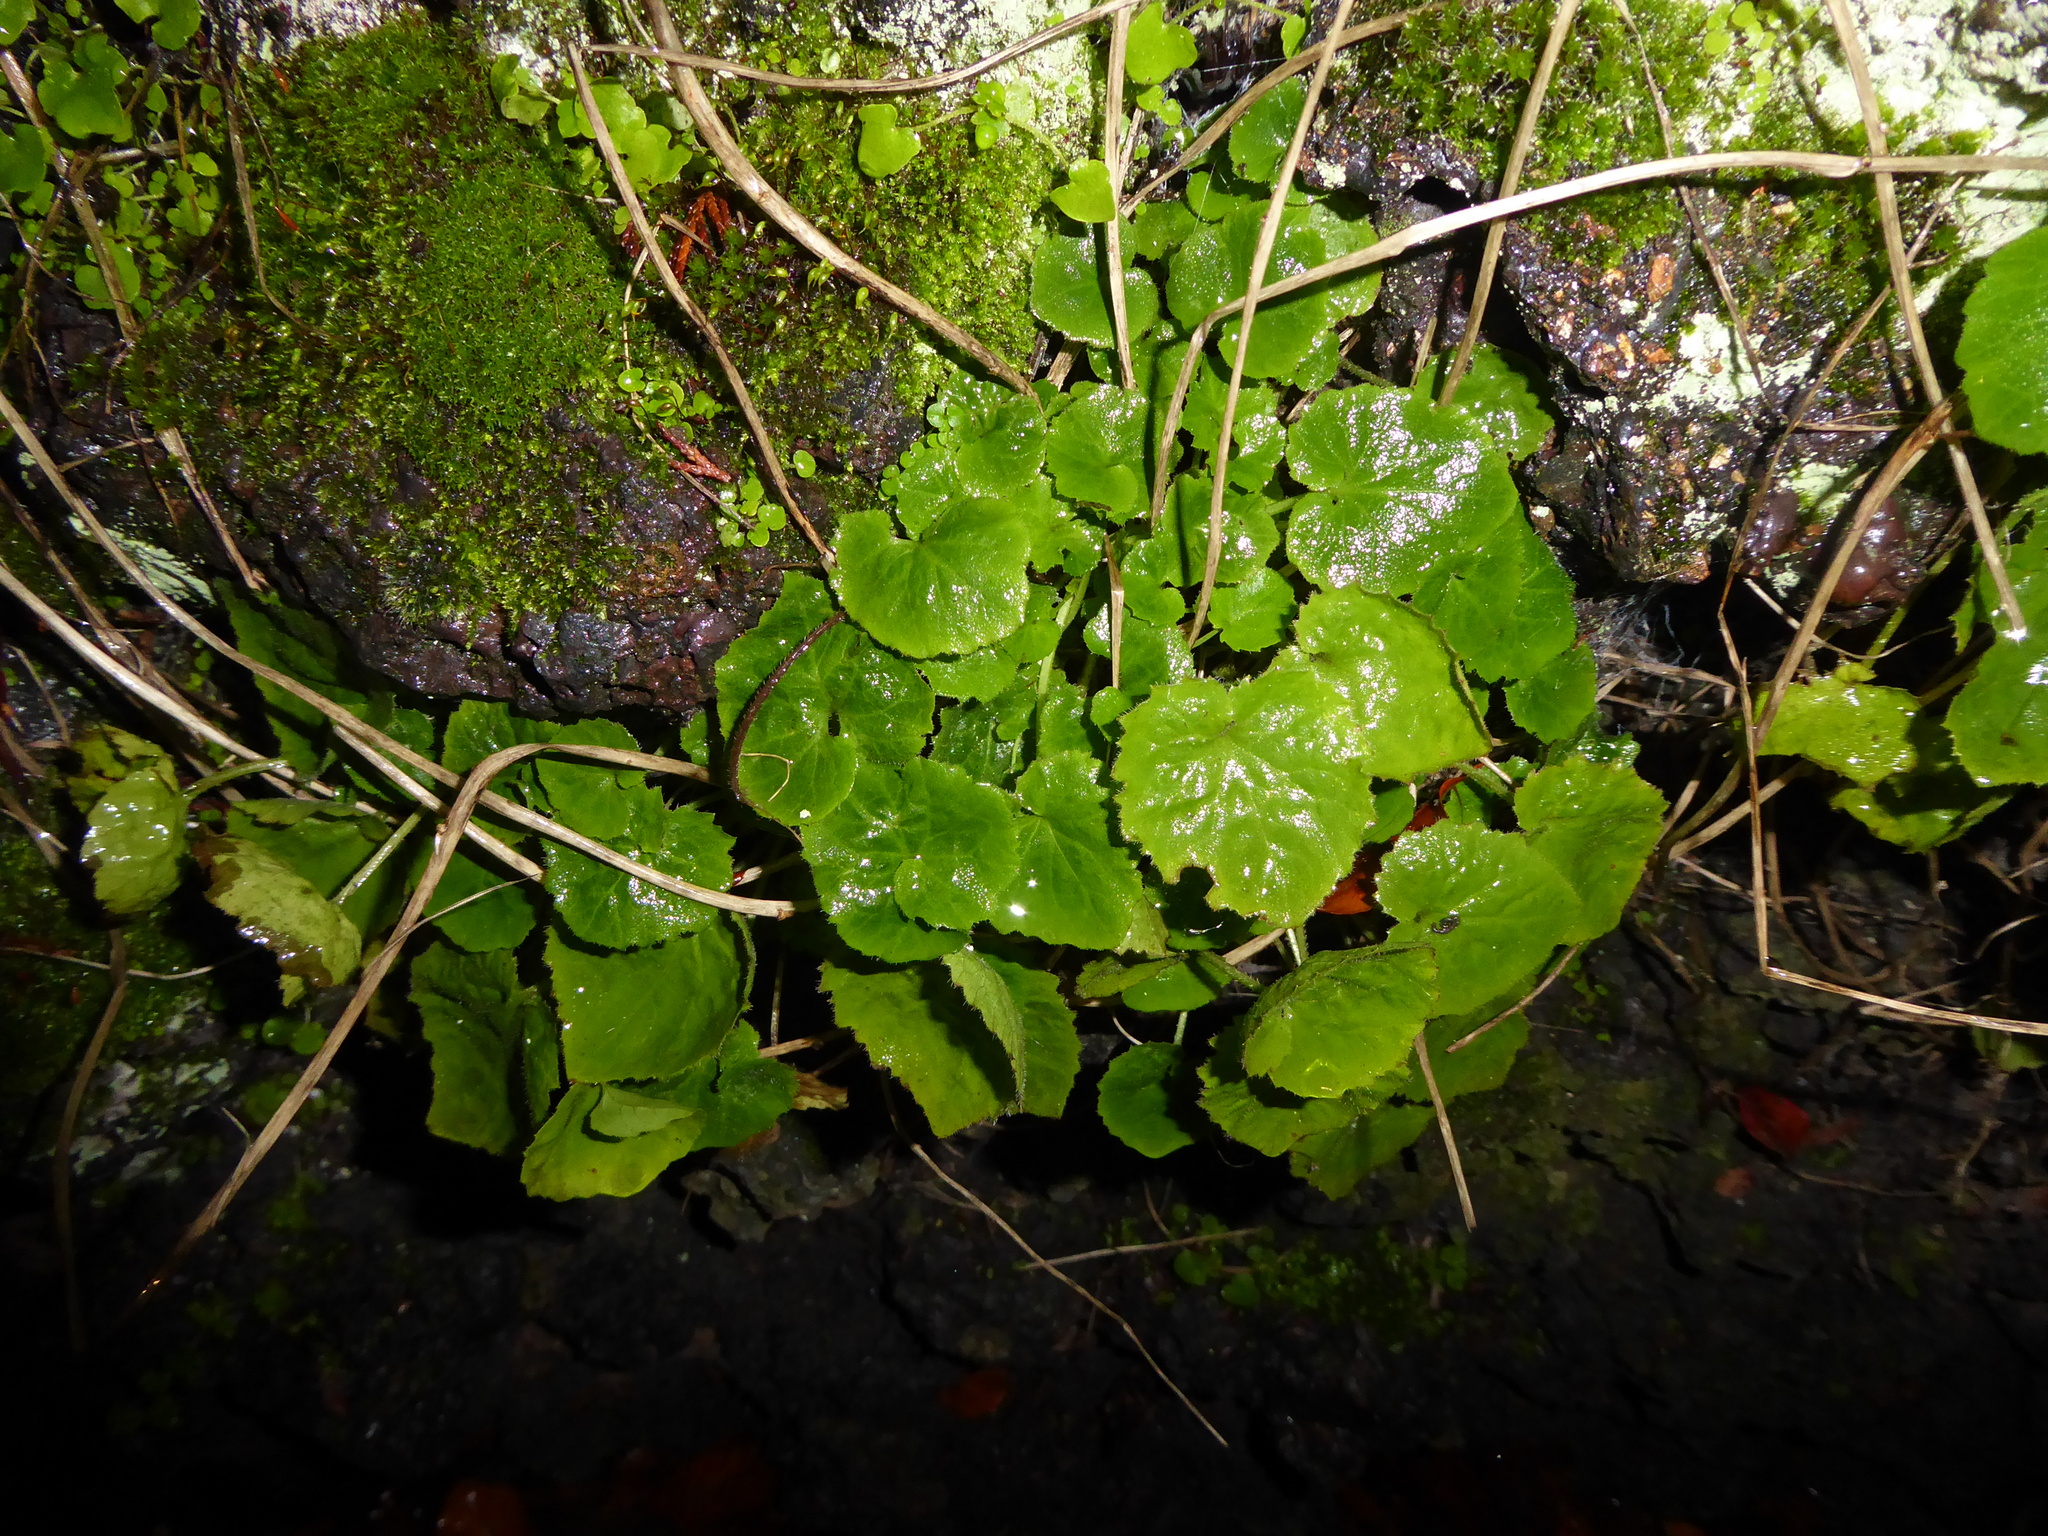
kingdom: Plantae
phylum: Tracheophyta
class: Magnoliopsida
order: Asterales
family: Campanulaceae
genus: Campanula
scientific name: Campanula poscharskyana
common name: Trailing bellflower
